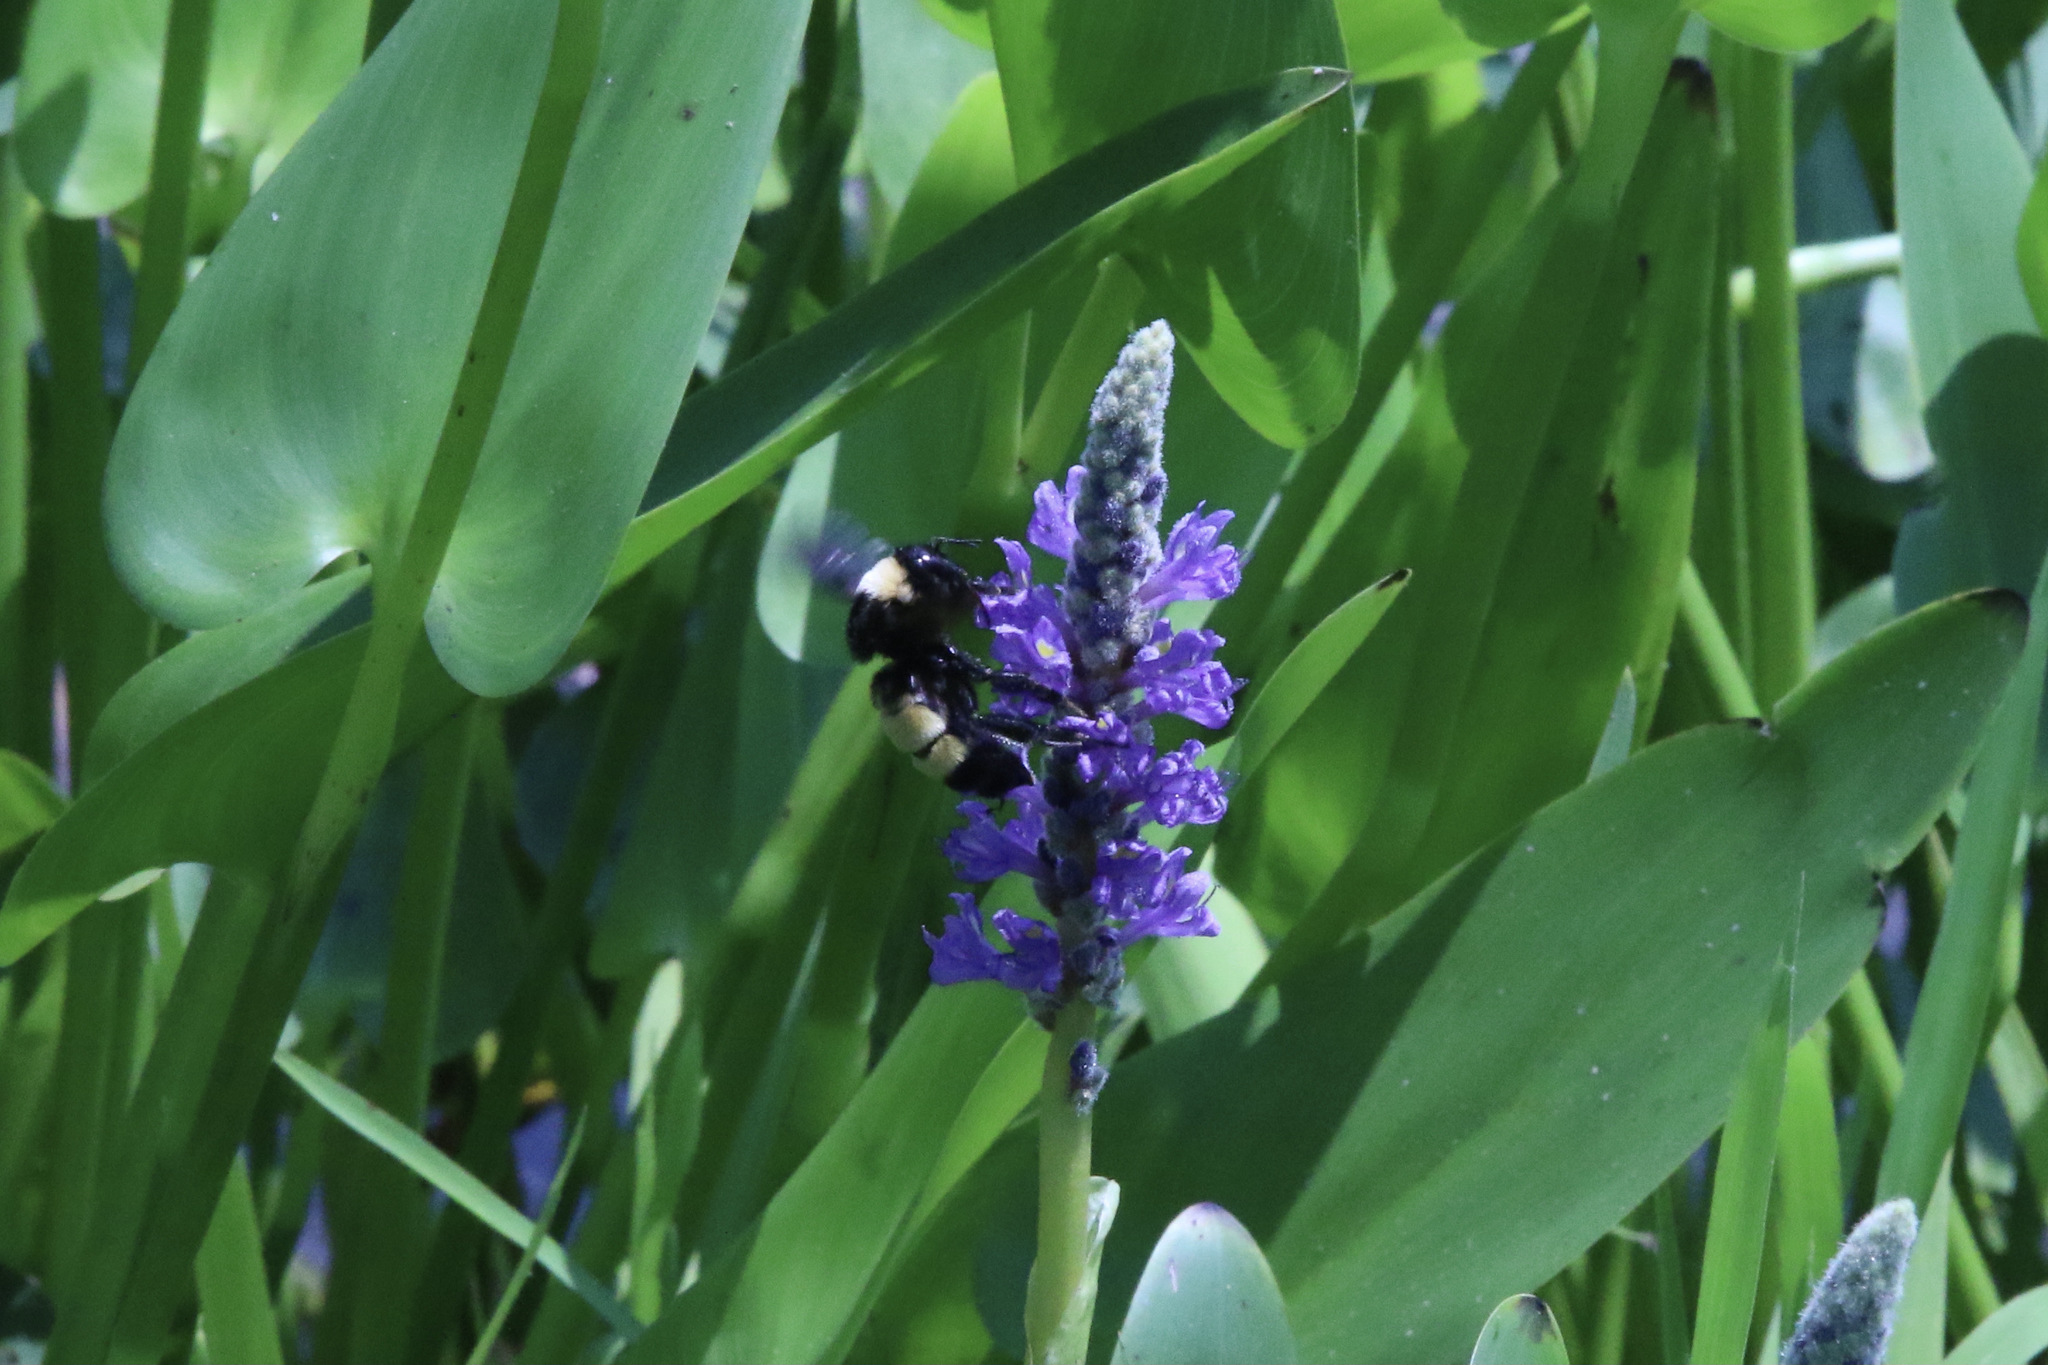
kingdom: Animalia
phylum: Arthropoda
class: Insecta
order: Hymenoptera
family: Apidae
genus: Bombus
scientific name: Bombus pensylvanicus
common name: Bumble bee
